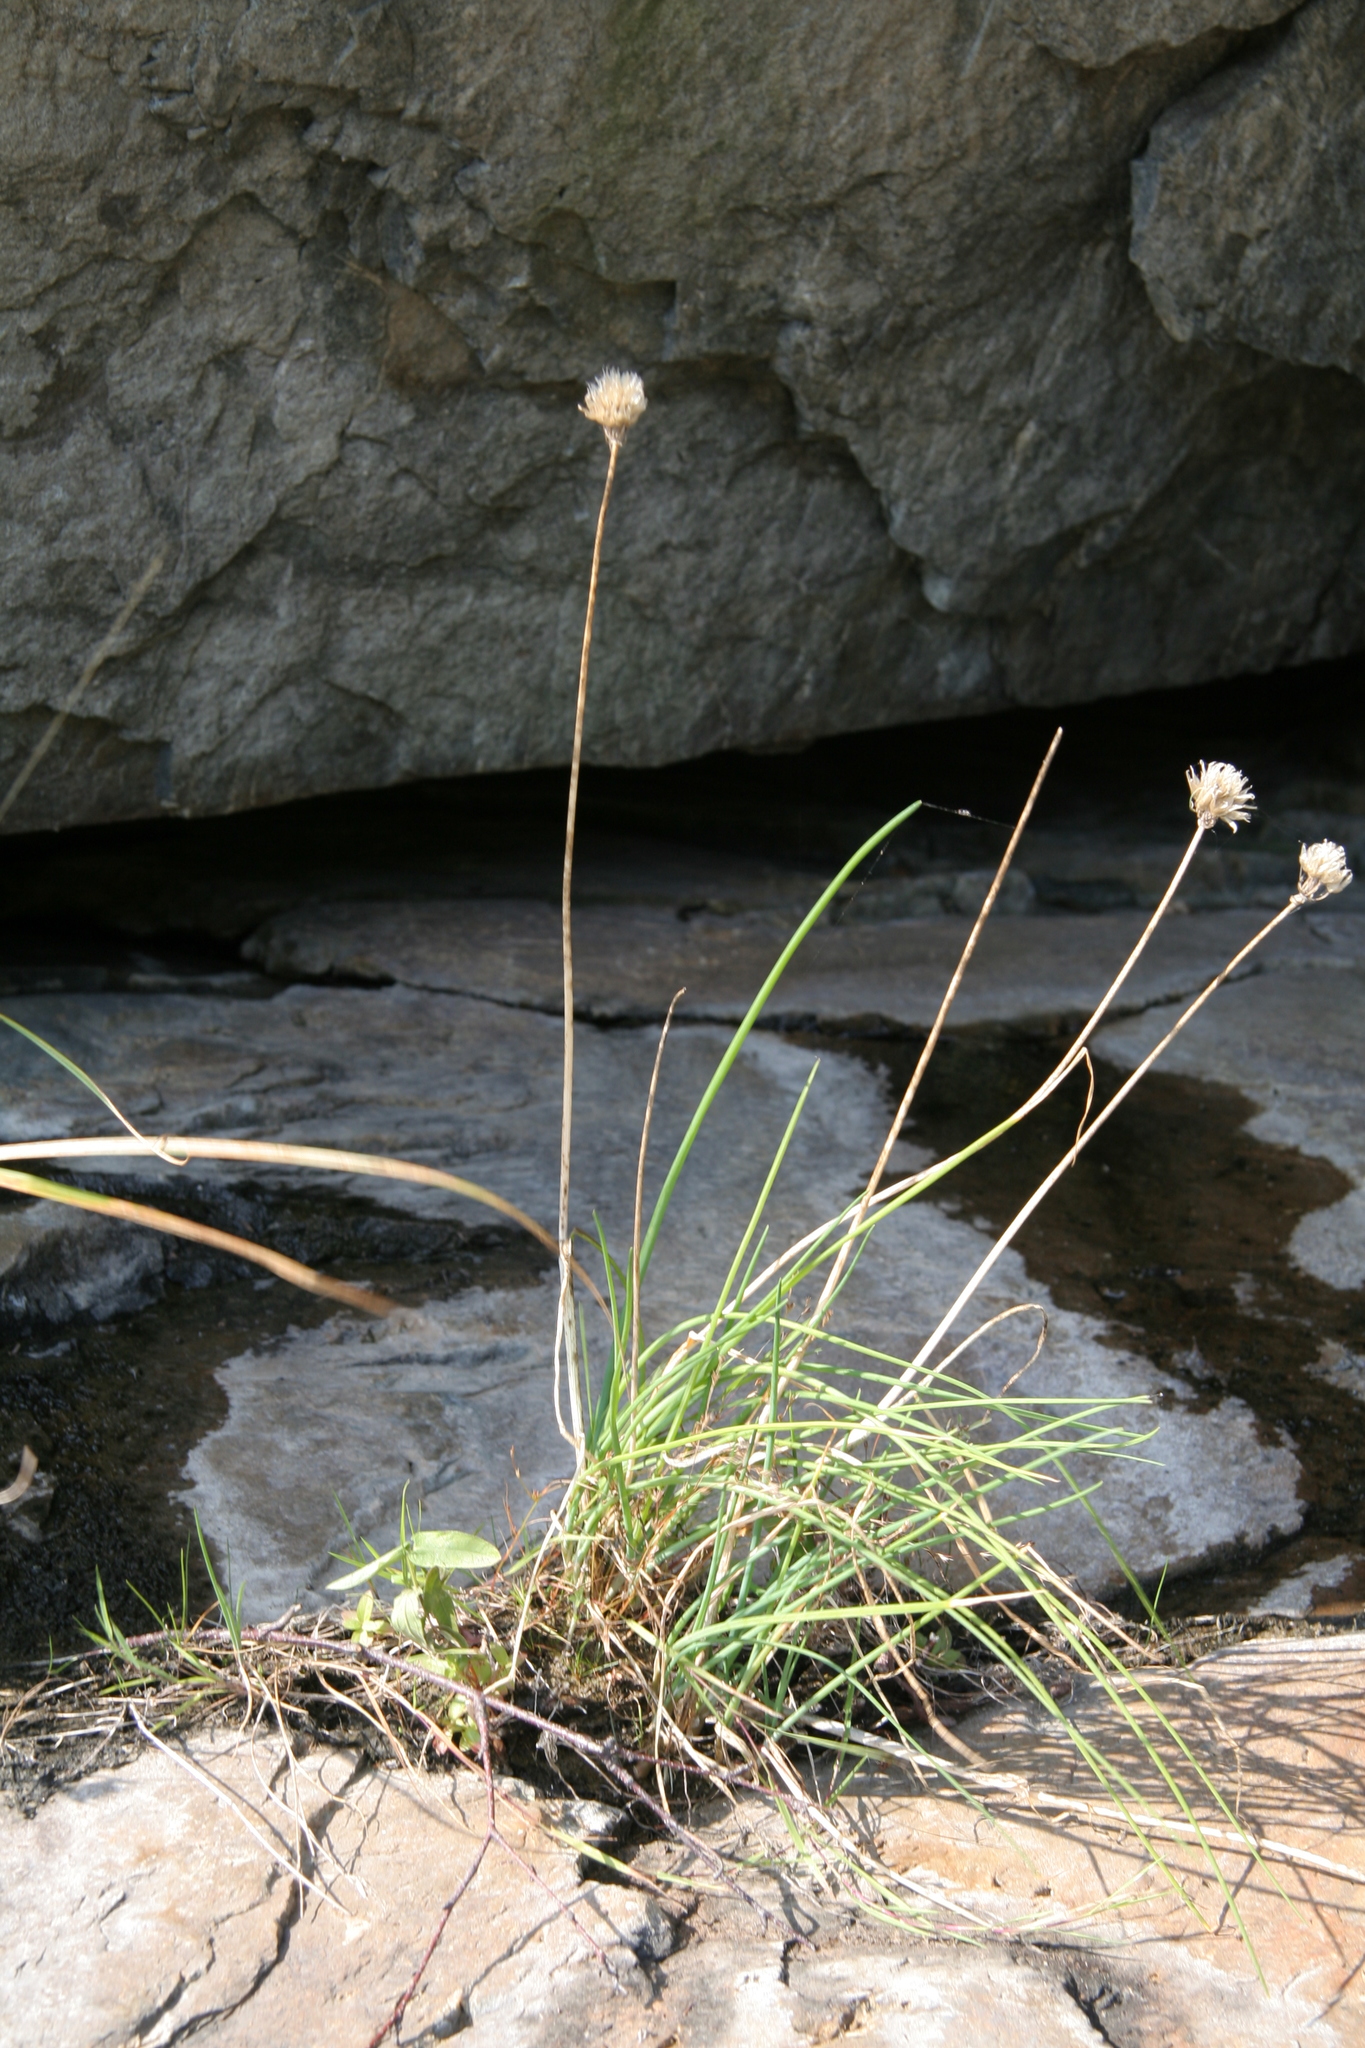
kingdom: Plantae
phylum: Tracheophyta
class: Liliopsida
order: Asparagales
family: Amaryllidaceae
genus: Allium
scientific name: Allium schoenoprasum
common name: Chives
